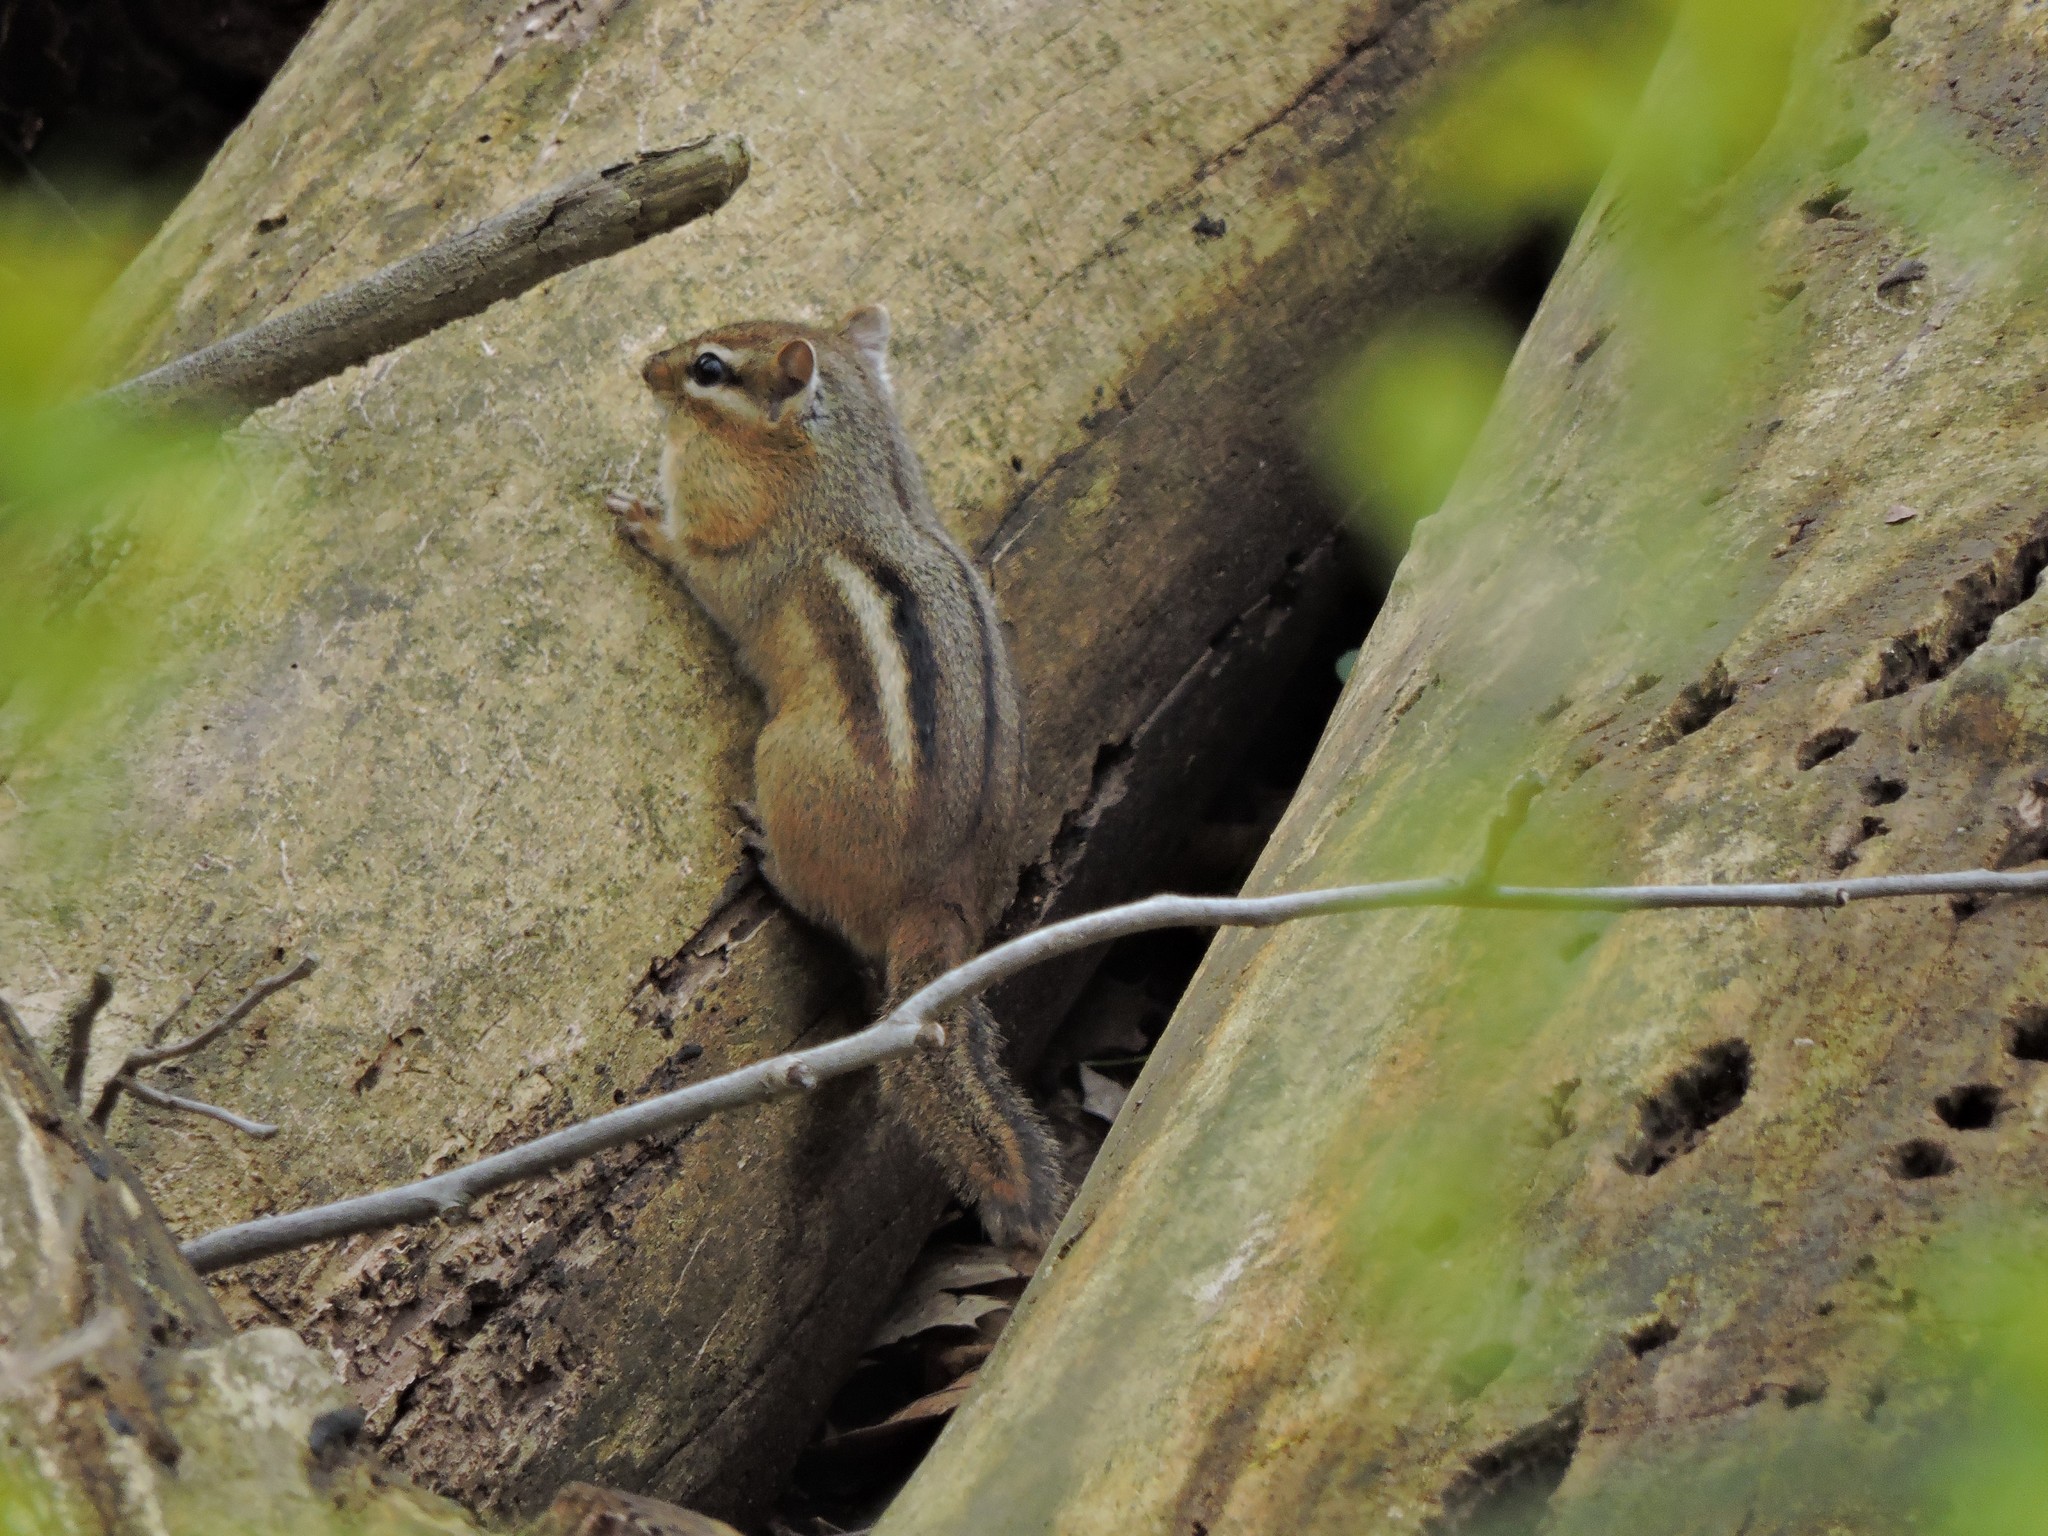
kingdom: Animalia
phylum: Chordata
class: Mammalia
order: Rodentia
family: Sciuridae
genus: Tamias
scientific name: Tamias striatus
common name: Eastern chipmunk
